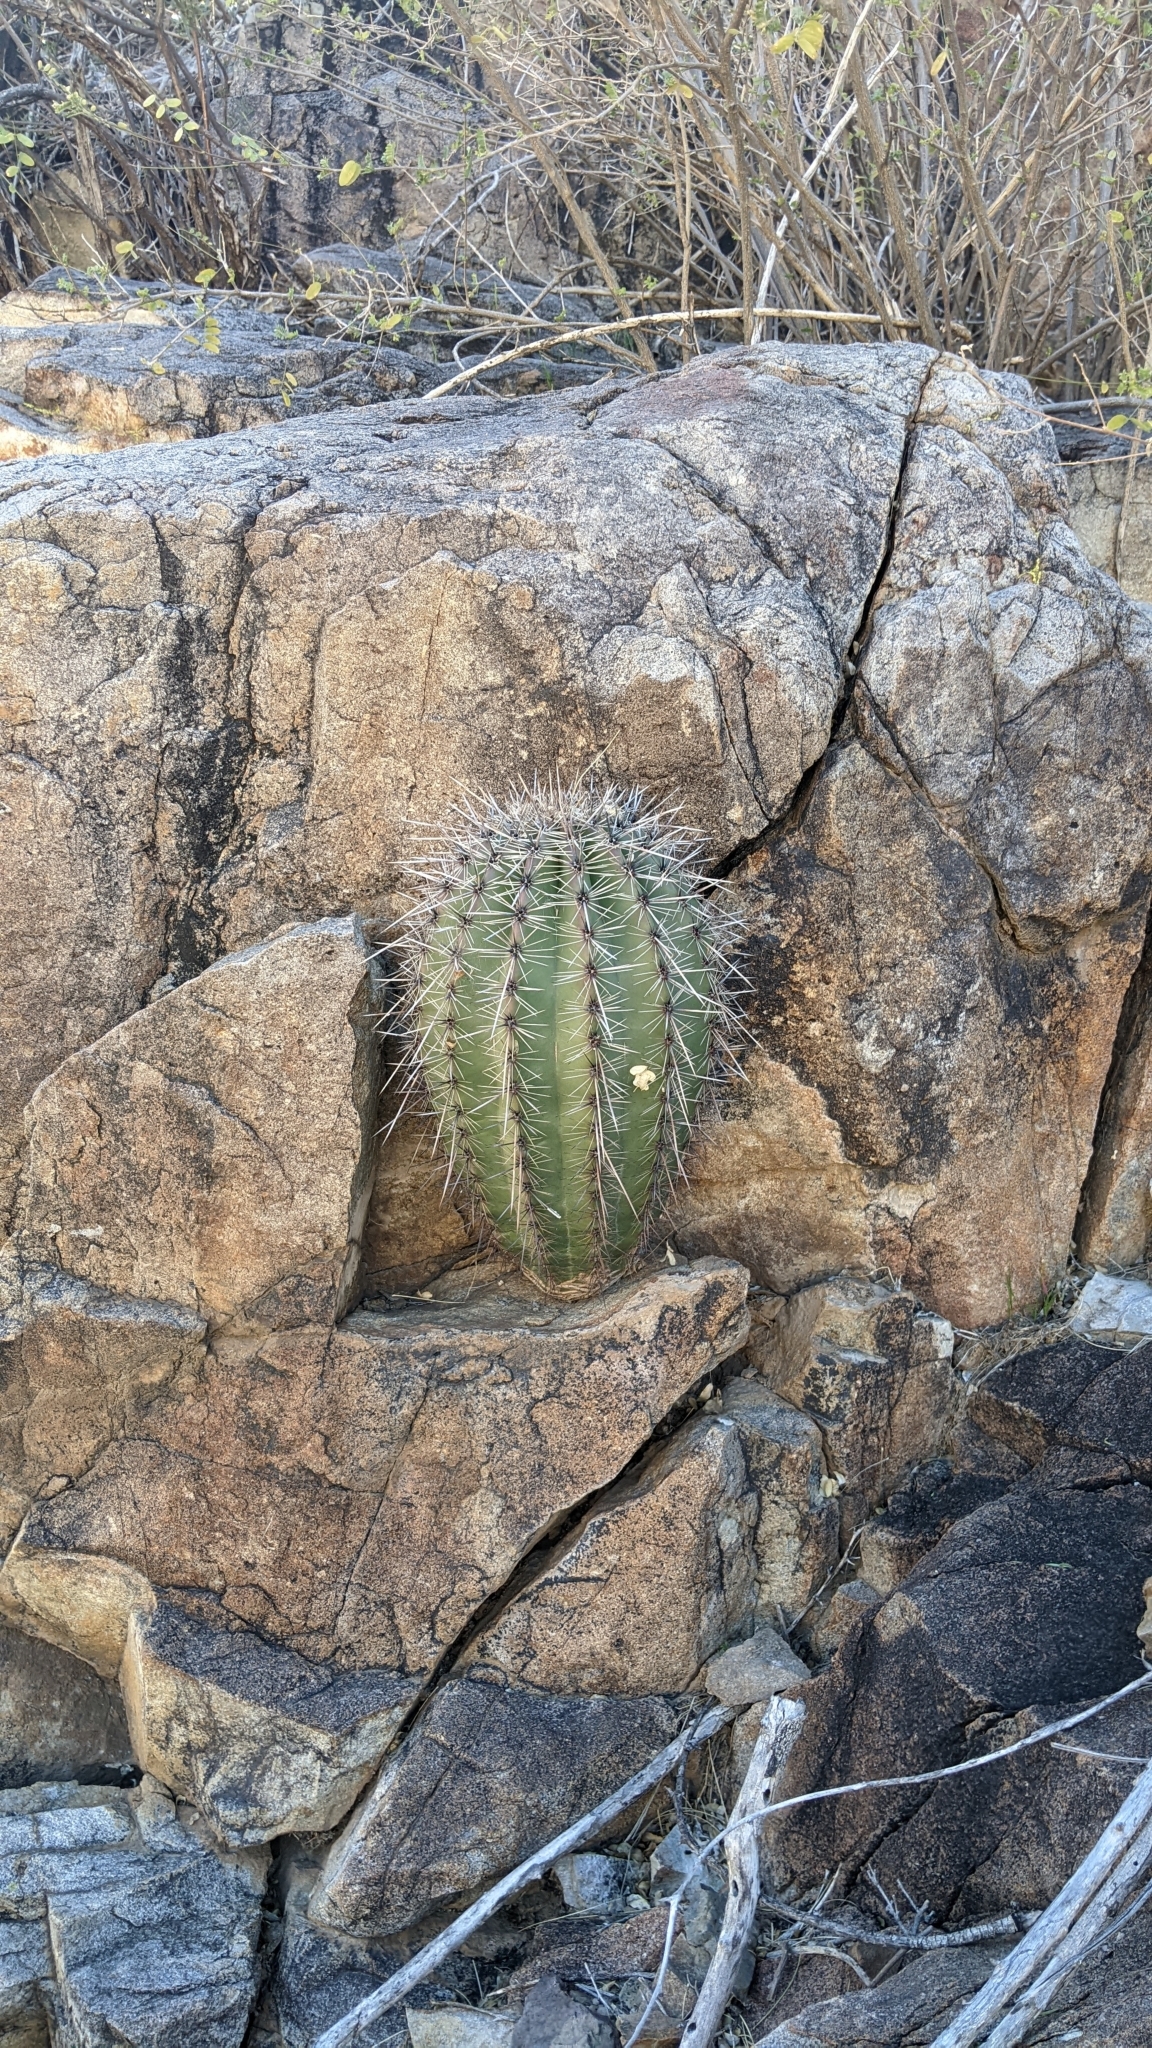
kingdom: Plantae
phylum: Tracheophyta
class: Magnoliopsida
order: Caryophyllales
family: Cactaceae
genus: Carnegiea
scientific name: Carnegiea gigantea
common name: Saguaro
